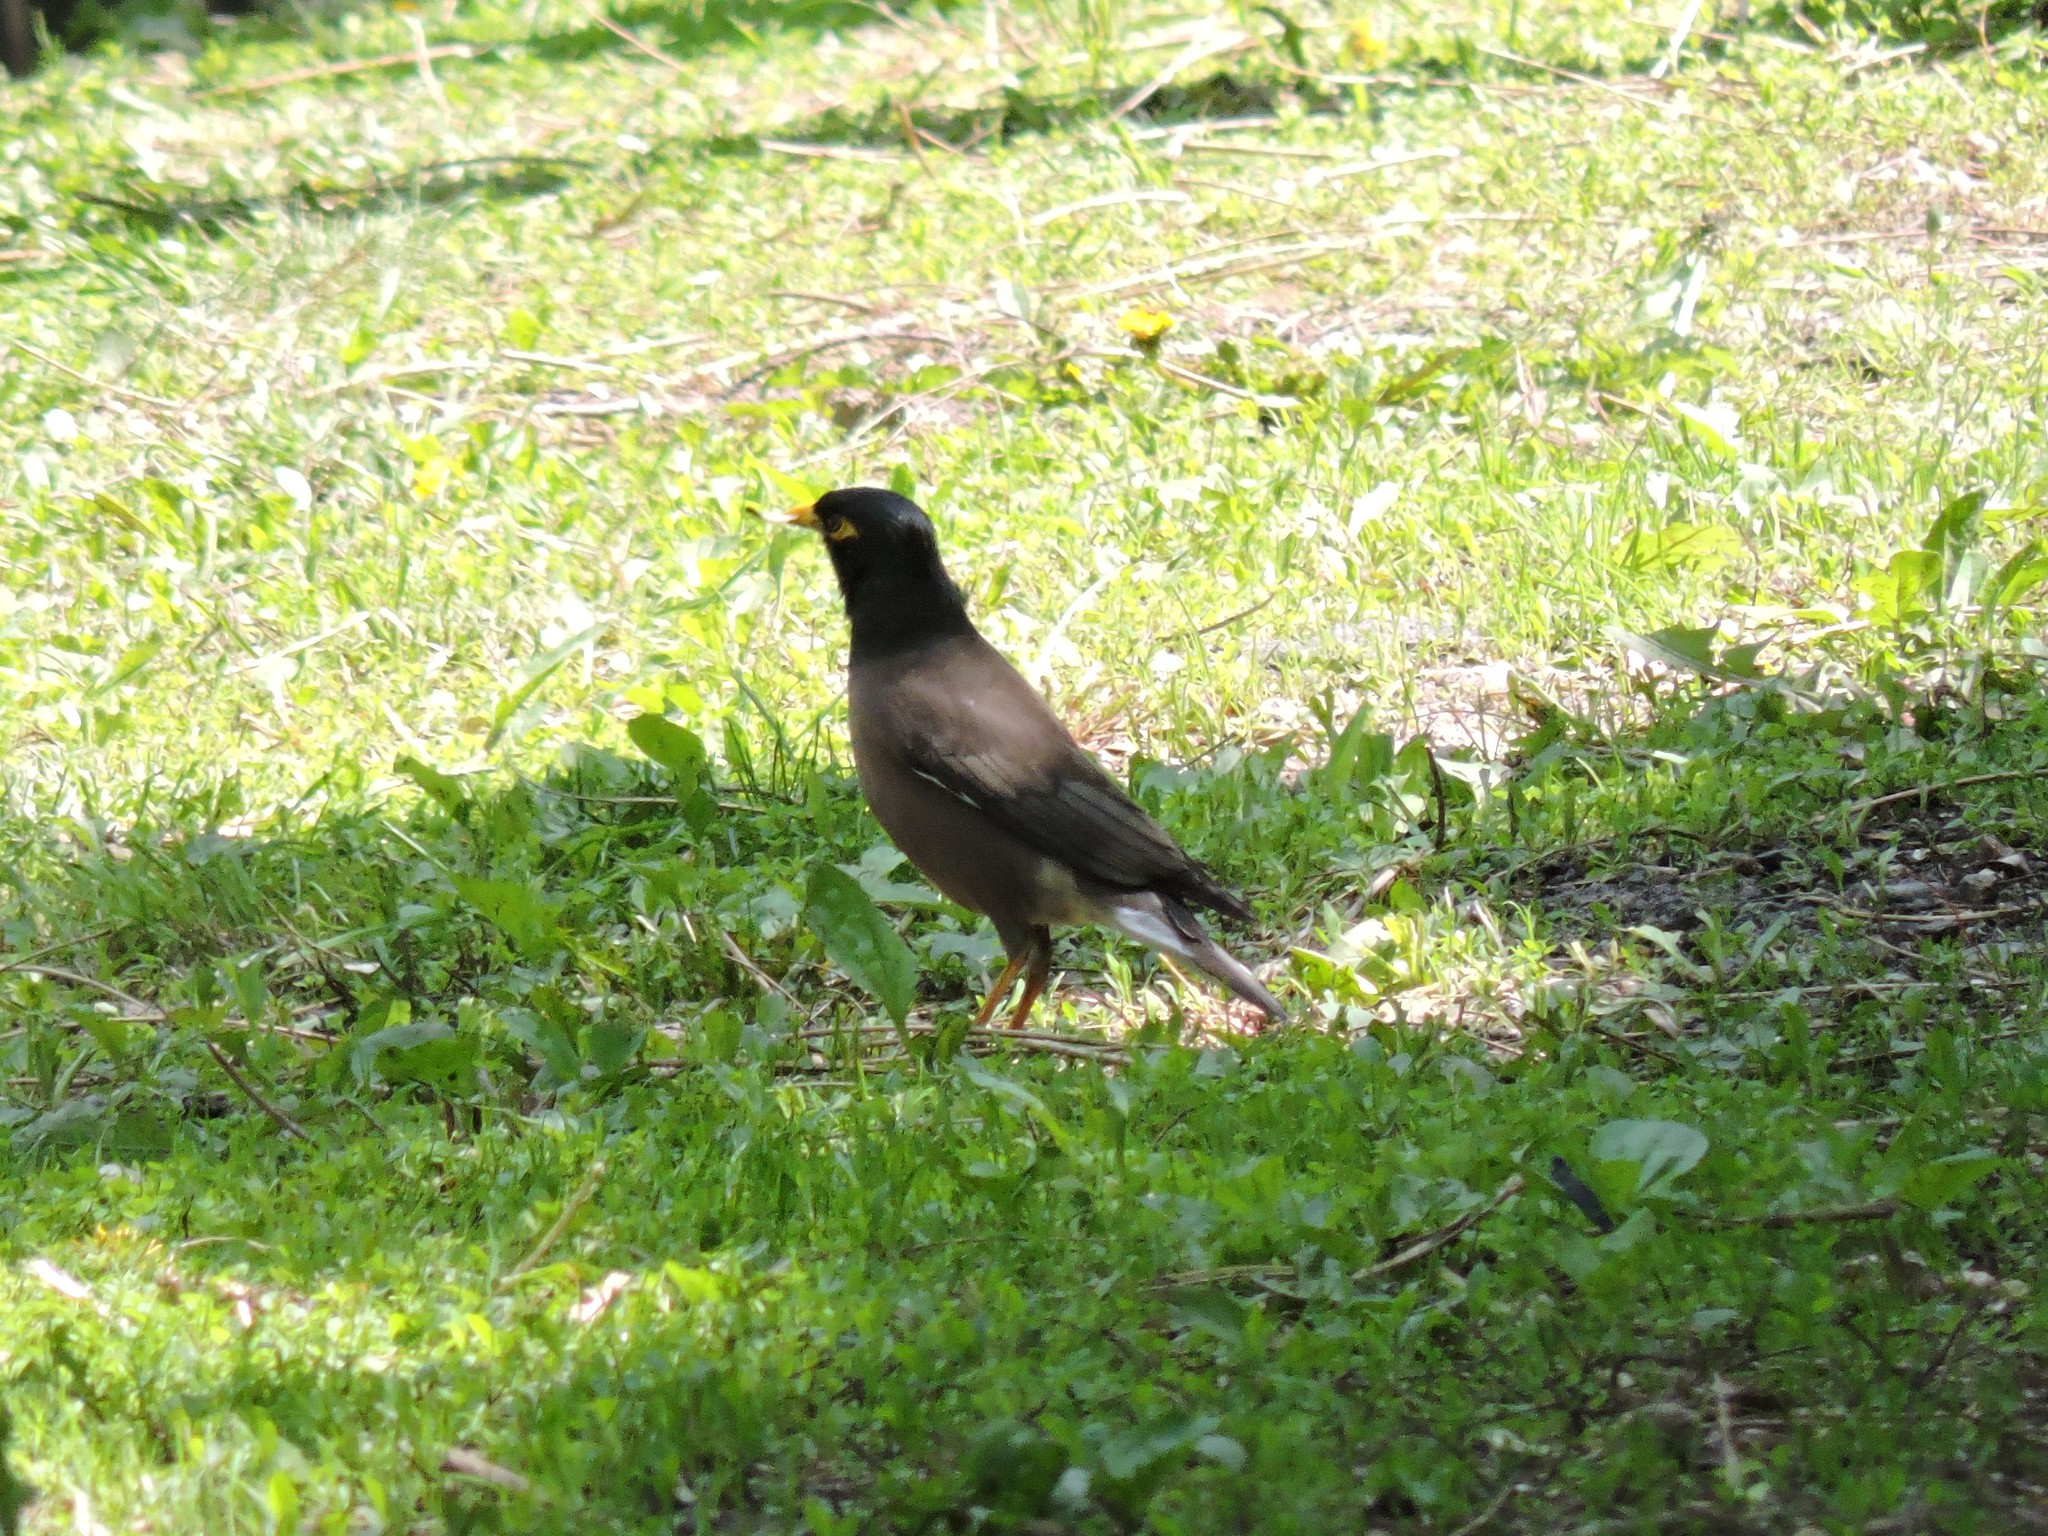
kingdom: Animalia
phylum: Chordata
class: Aves
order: Passeriformes
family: Sturnidae
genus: Acridotheres
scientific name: Acridotheres tristis
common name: Common myna
